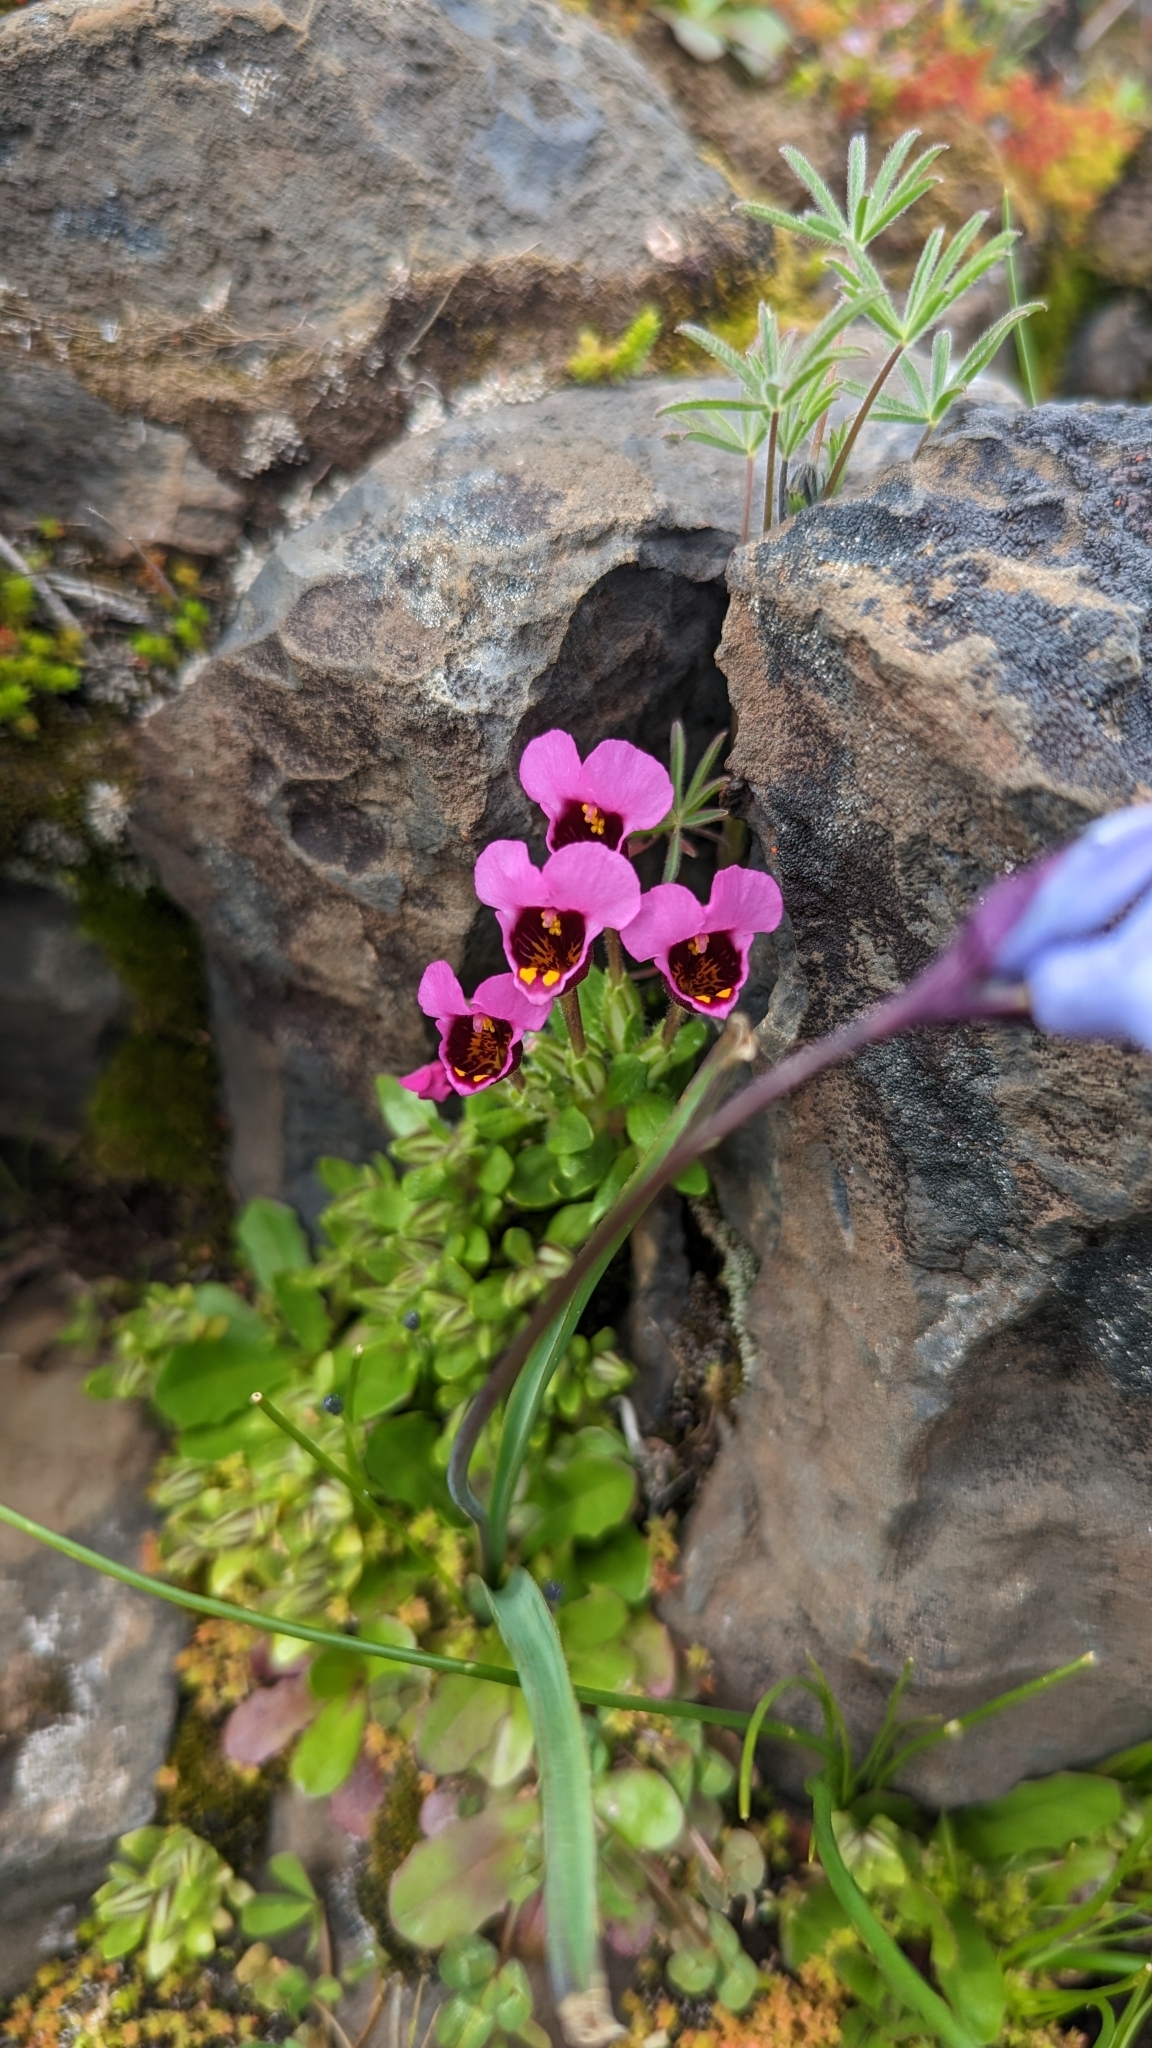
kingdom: Plantae
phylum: Tracheophyta
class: Magnoliopsida
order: Lamiales
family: Phrymaceae
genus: Diplacus
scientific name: Diplacus douglasii
